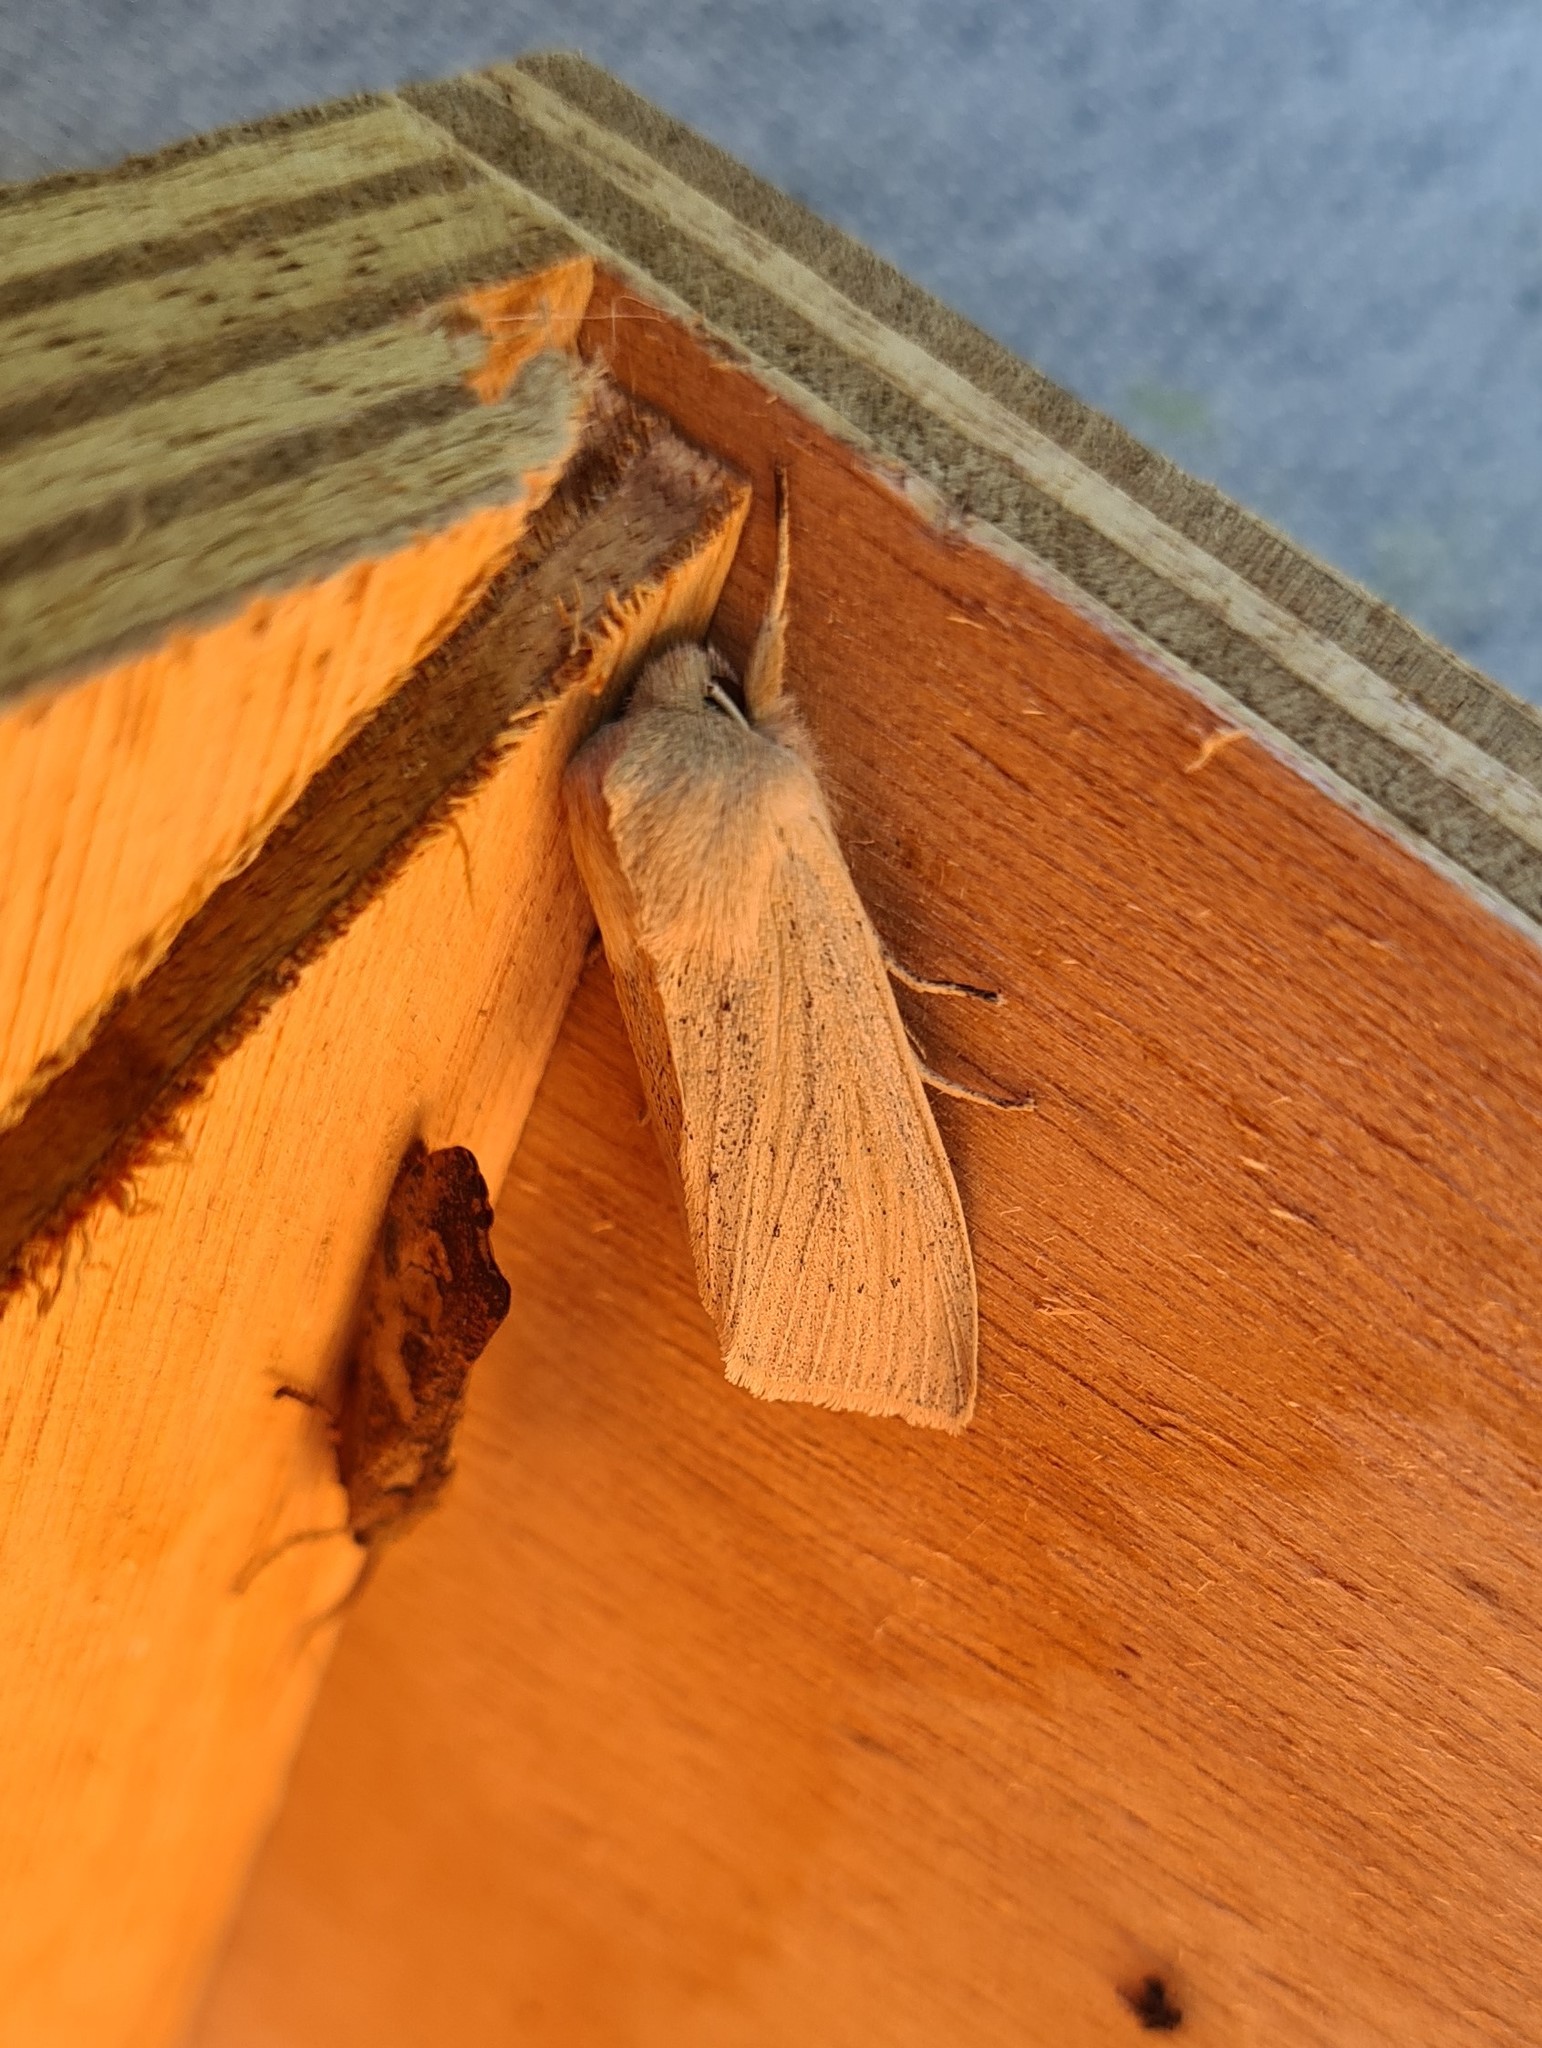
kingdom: Animalia
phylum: Arthropoda
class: Insecta
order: Lepidoptera
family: Noctuidae
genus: Rhizedra
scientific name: Rhizedra lutosa
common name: Large wainscot
